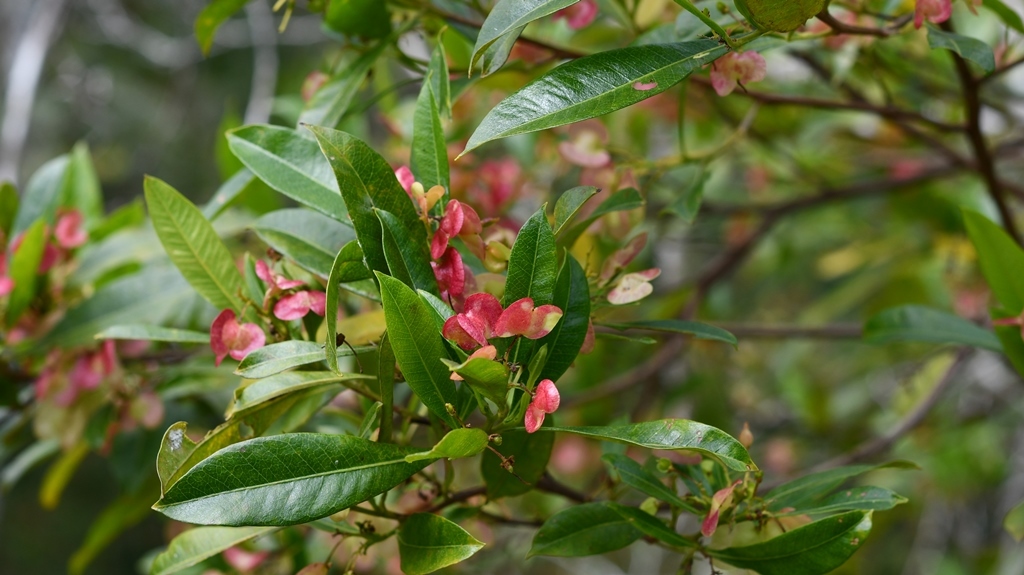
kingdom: Plantae
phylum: Tracheophyta
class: Magnoliopsida
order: Sapindales
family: Sapindaceae
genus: Dodonaea
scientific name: Dodonaea viscosa
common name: Hopbush
